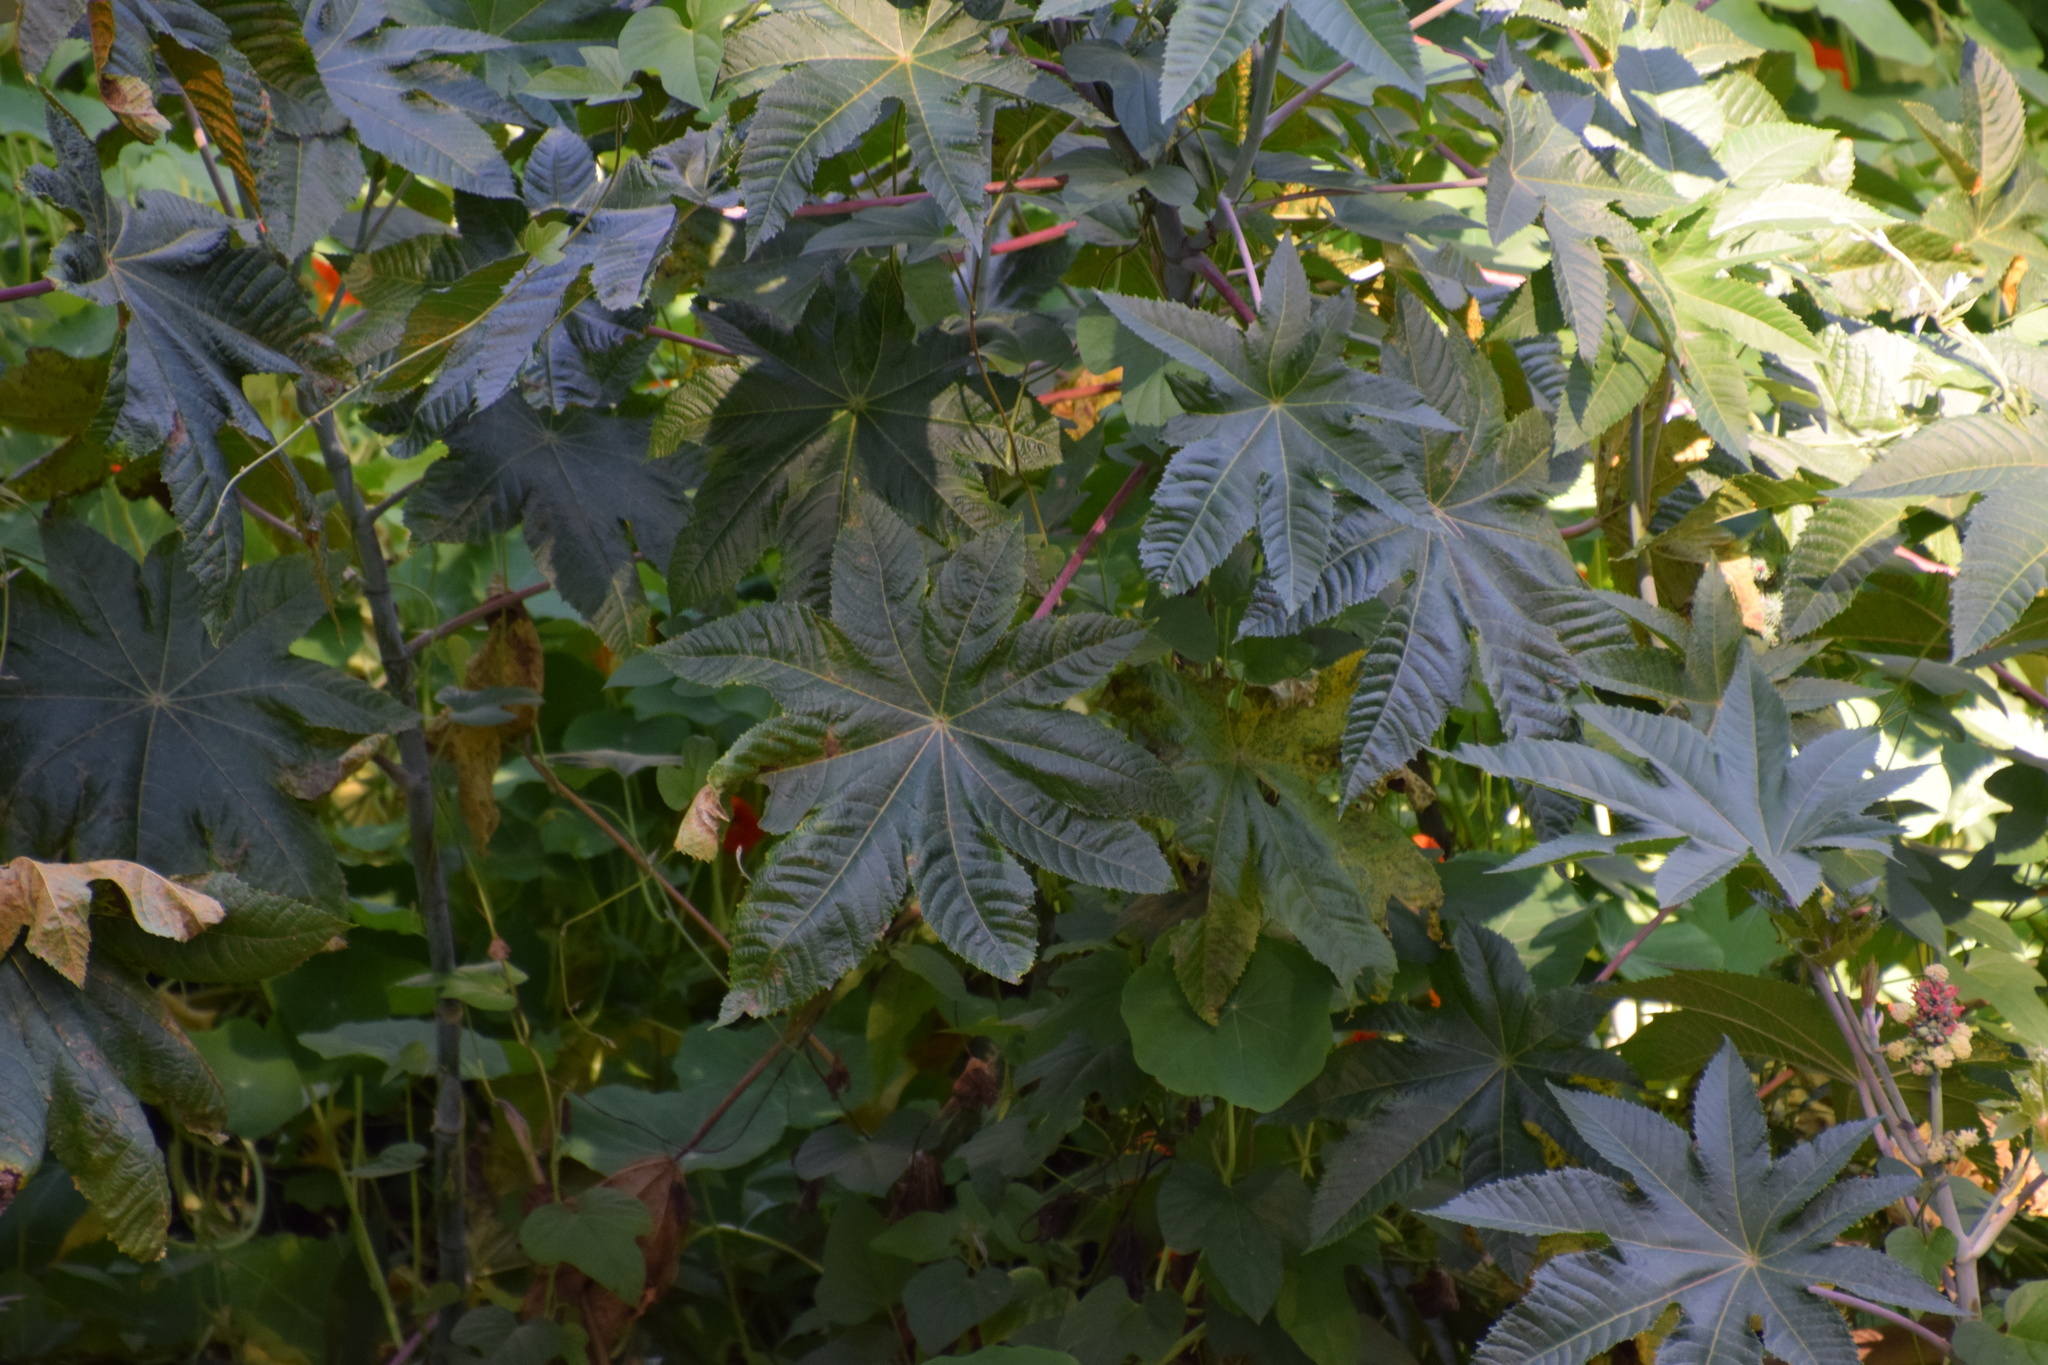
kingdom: Plantae
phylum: Tracheophyta
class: Magnoliopsida
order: Malpighiales
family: Euphorbiaceae
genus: Ricinus
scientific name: Ricinus communis
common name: Castor-oil-plant
